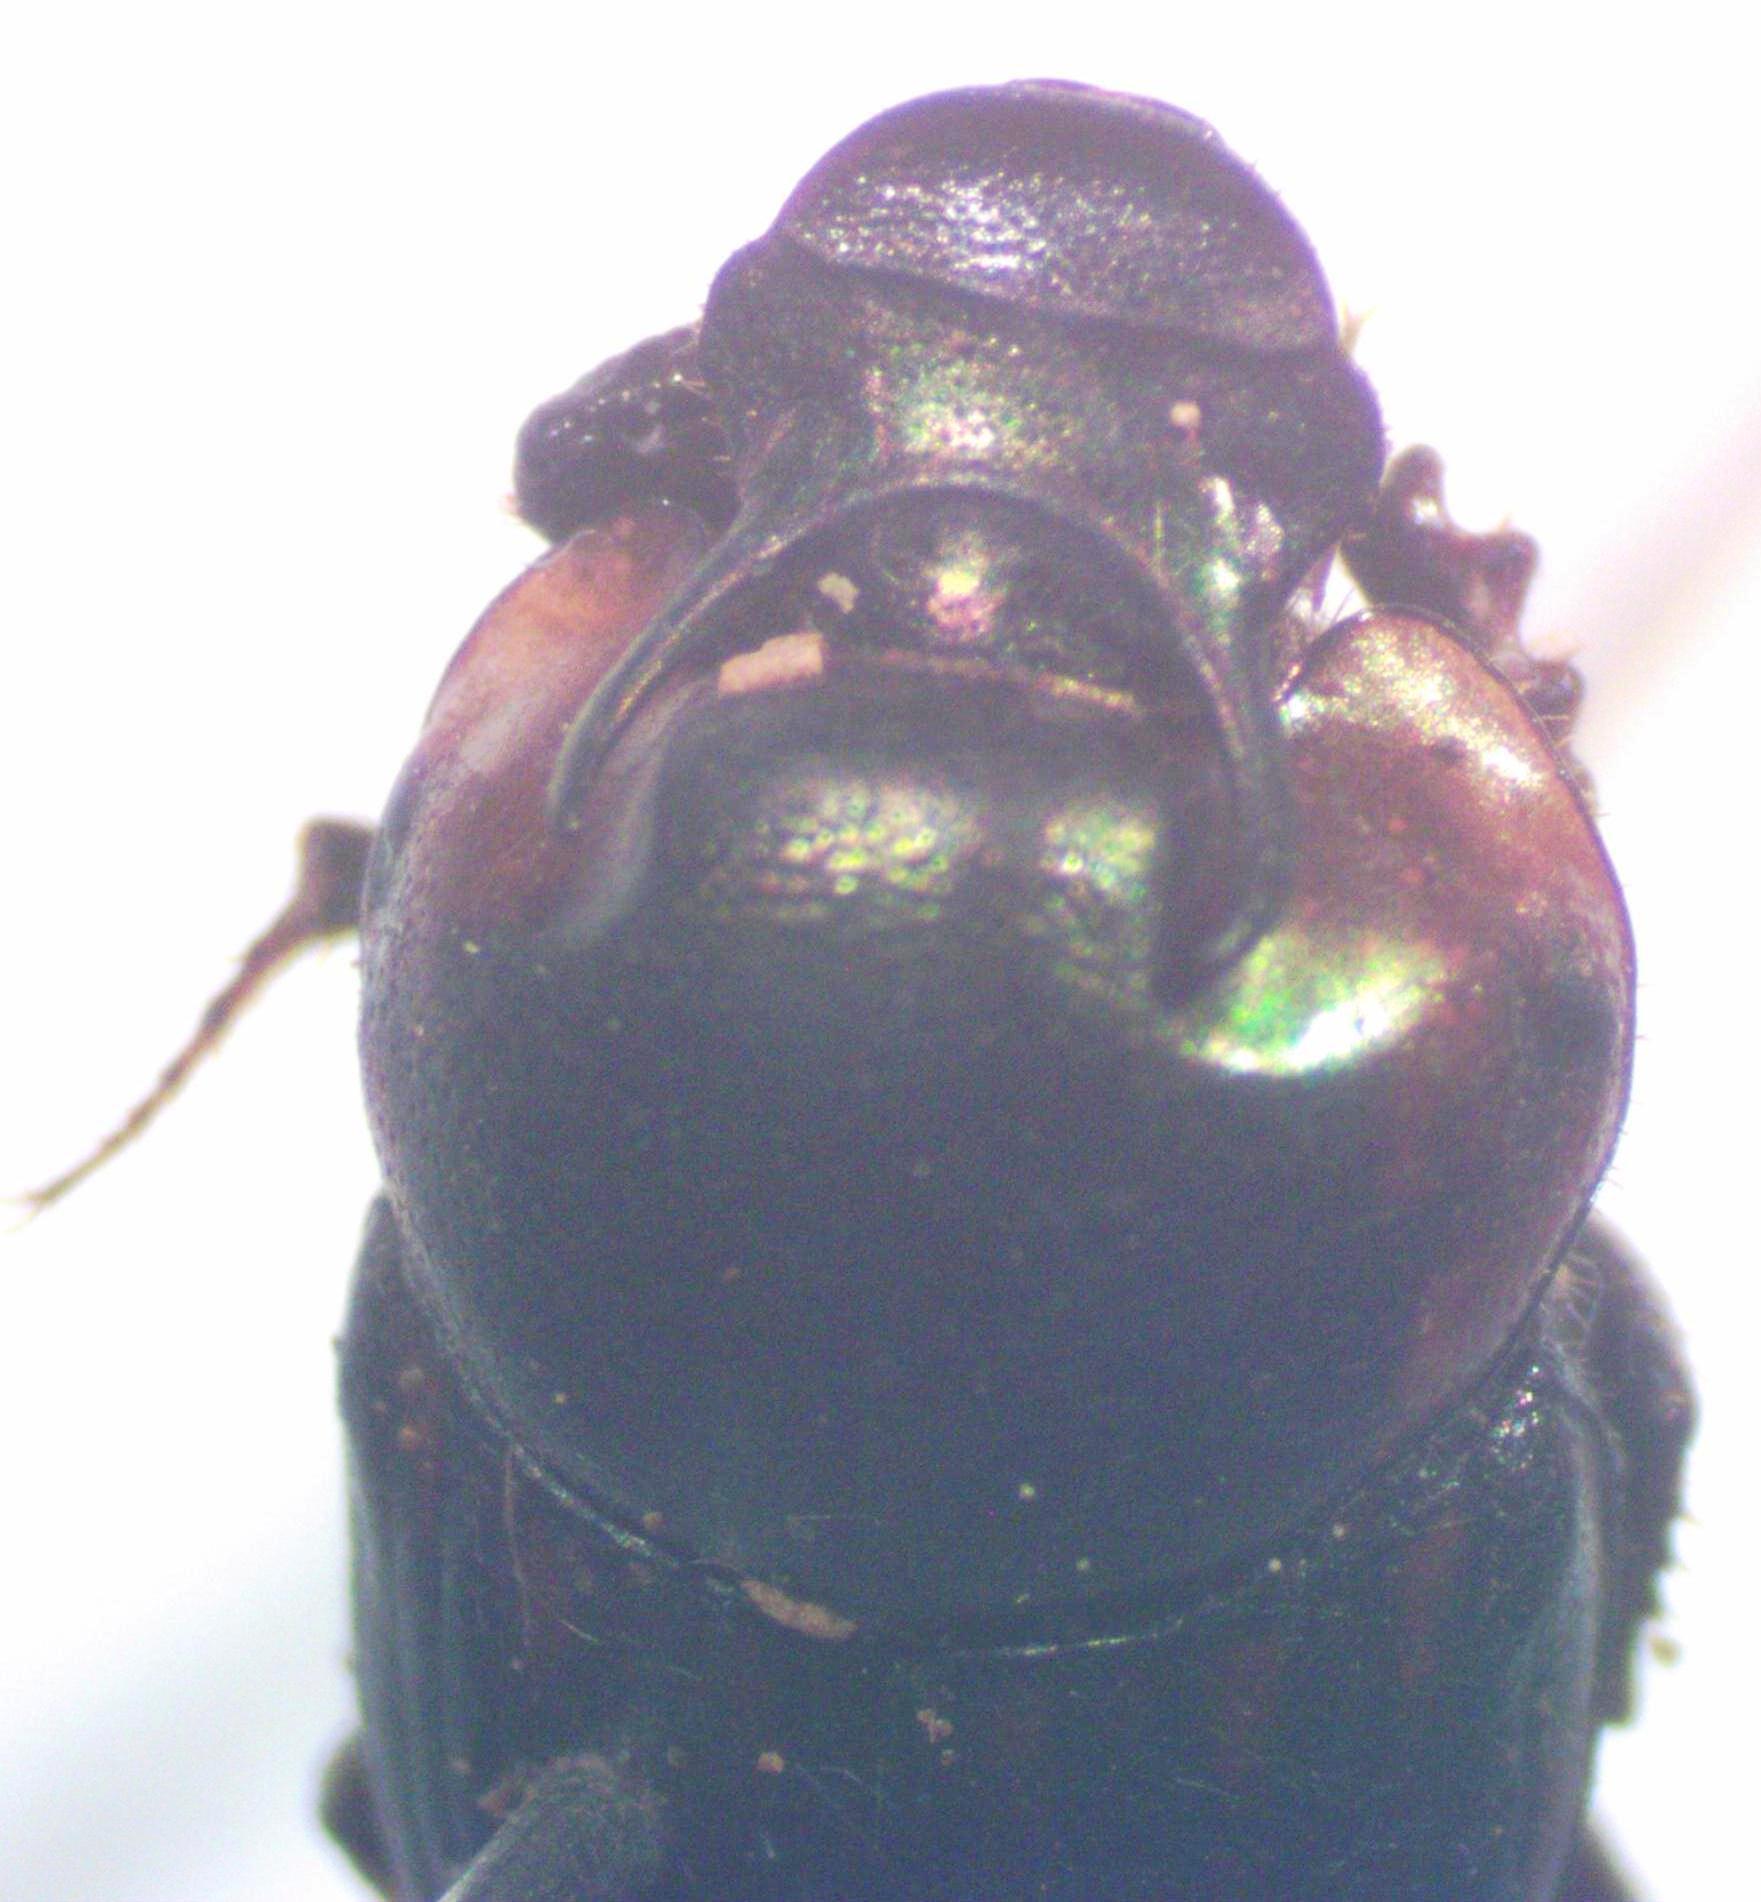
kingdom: Animalia
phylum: Arthropoda
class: Insecta
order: Coleoptera
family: Scarabaeidae
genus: Onthophagus
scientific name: Onthophagus marginicollis
